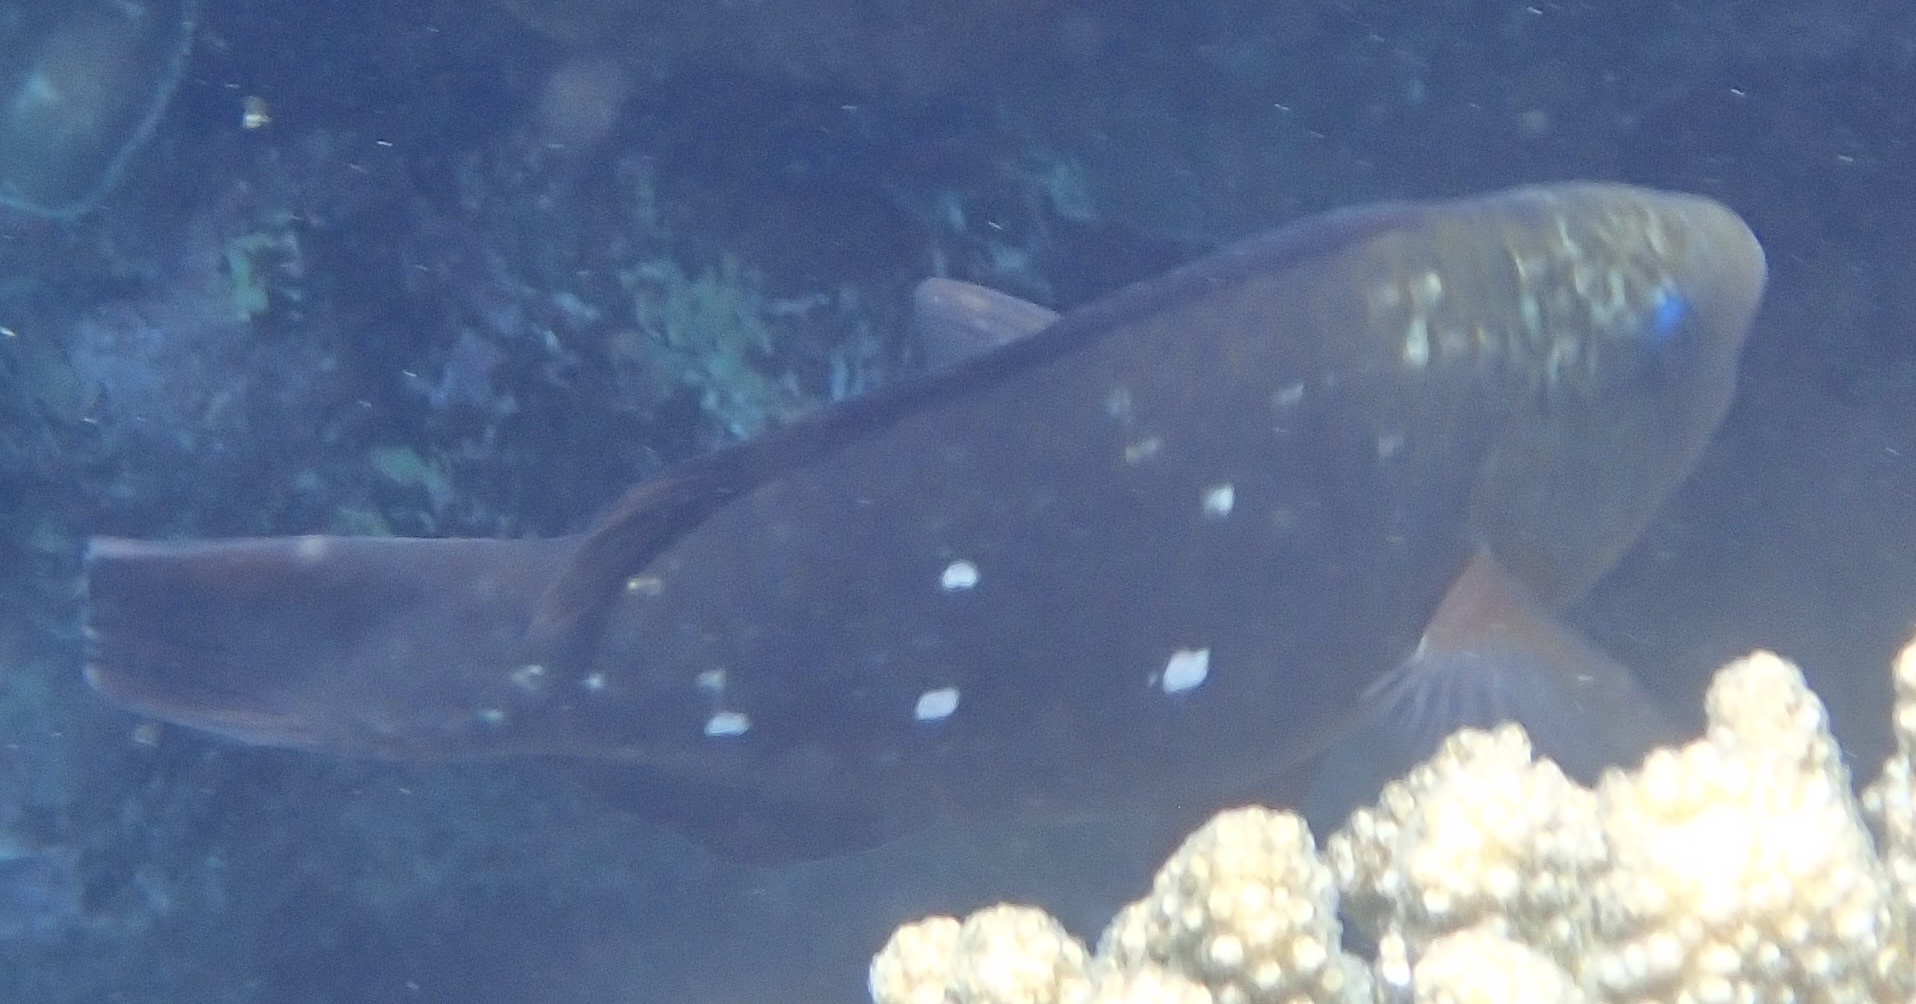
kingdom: Animalia
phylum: Chordata
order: Perciformes
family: Scaridae
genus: Chlorurus
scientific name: Chlorurus sordidus
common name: Bullethead parrotfish
